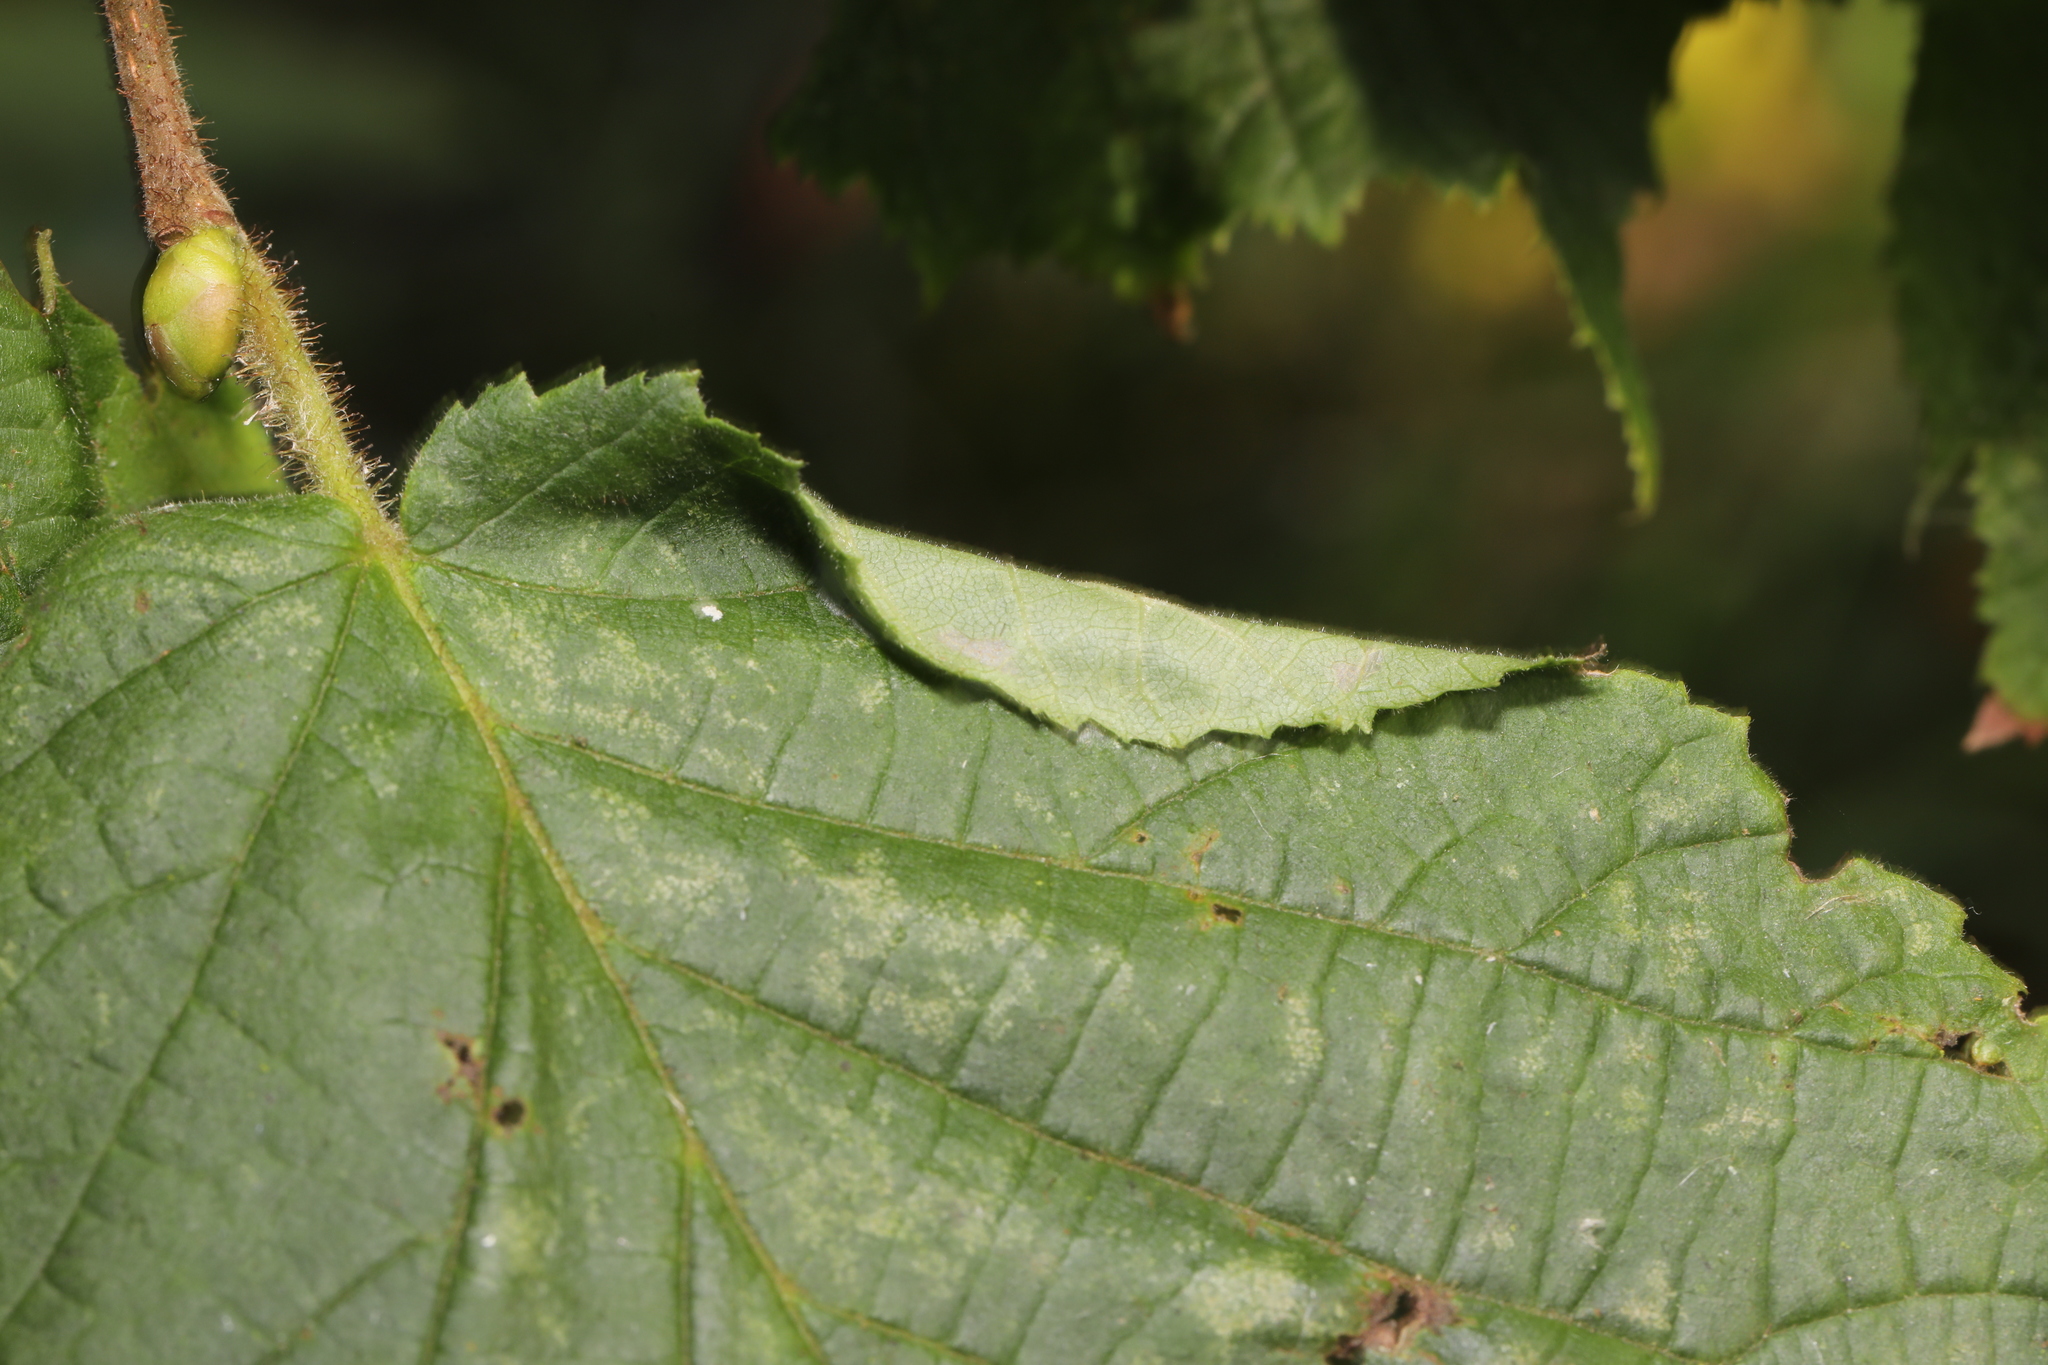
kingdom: Animalia
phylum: Arthropoda
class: Insecta
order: Lepidoptera
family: Gracillariidae
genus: Parornix
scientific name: Parornix devoniella
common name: Hazel slender
